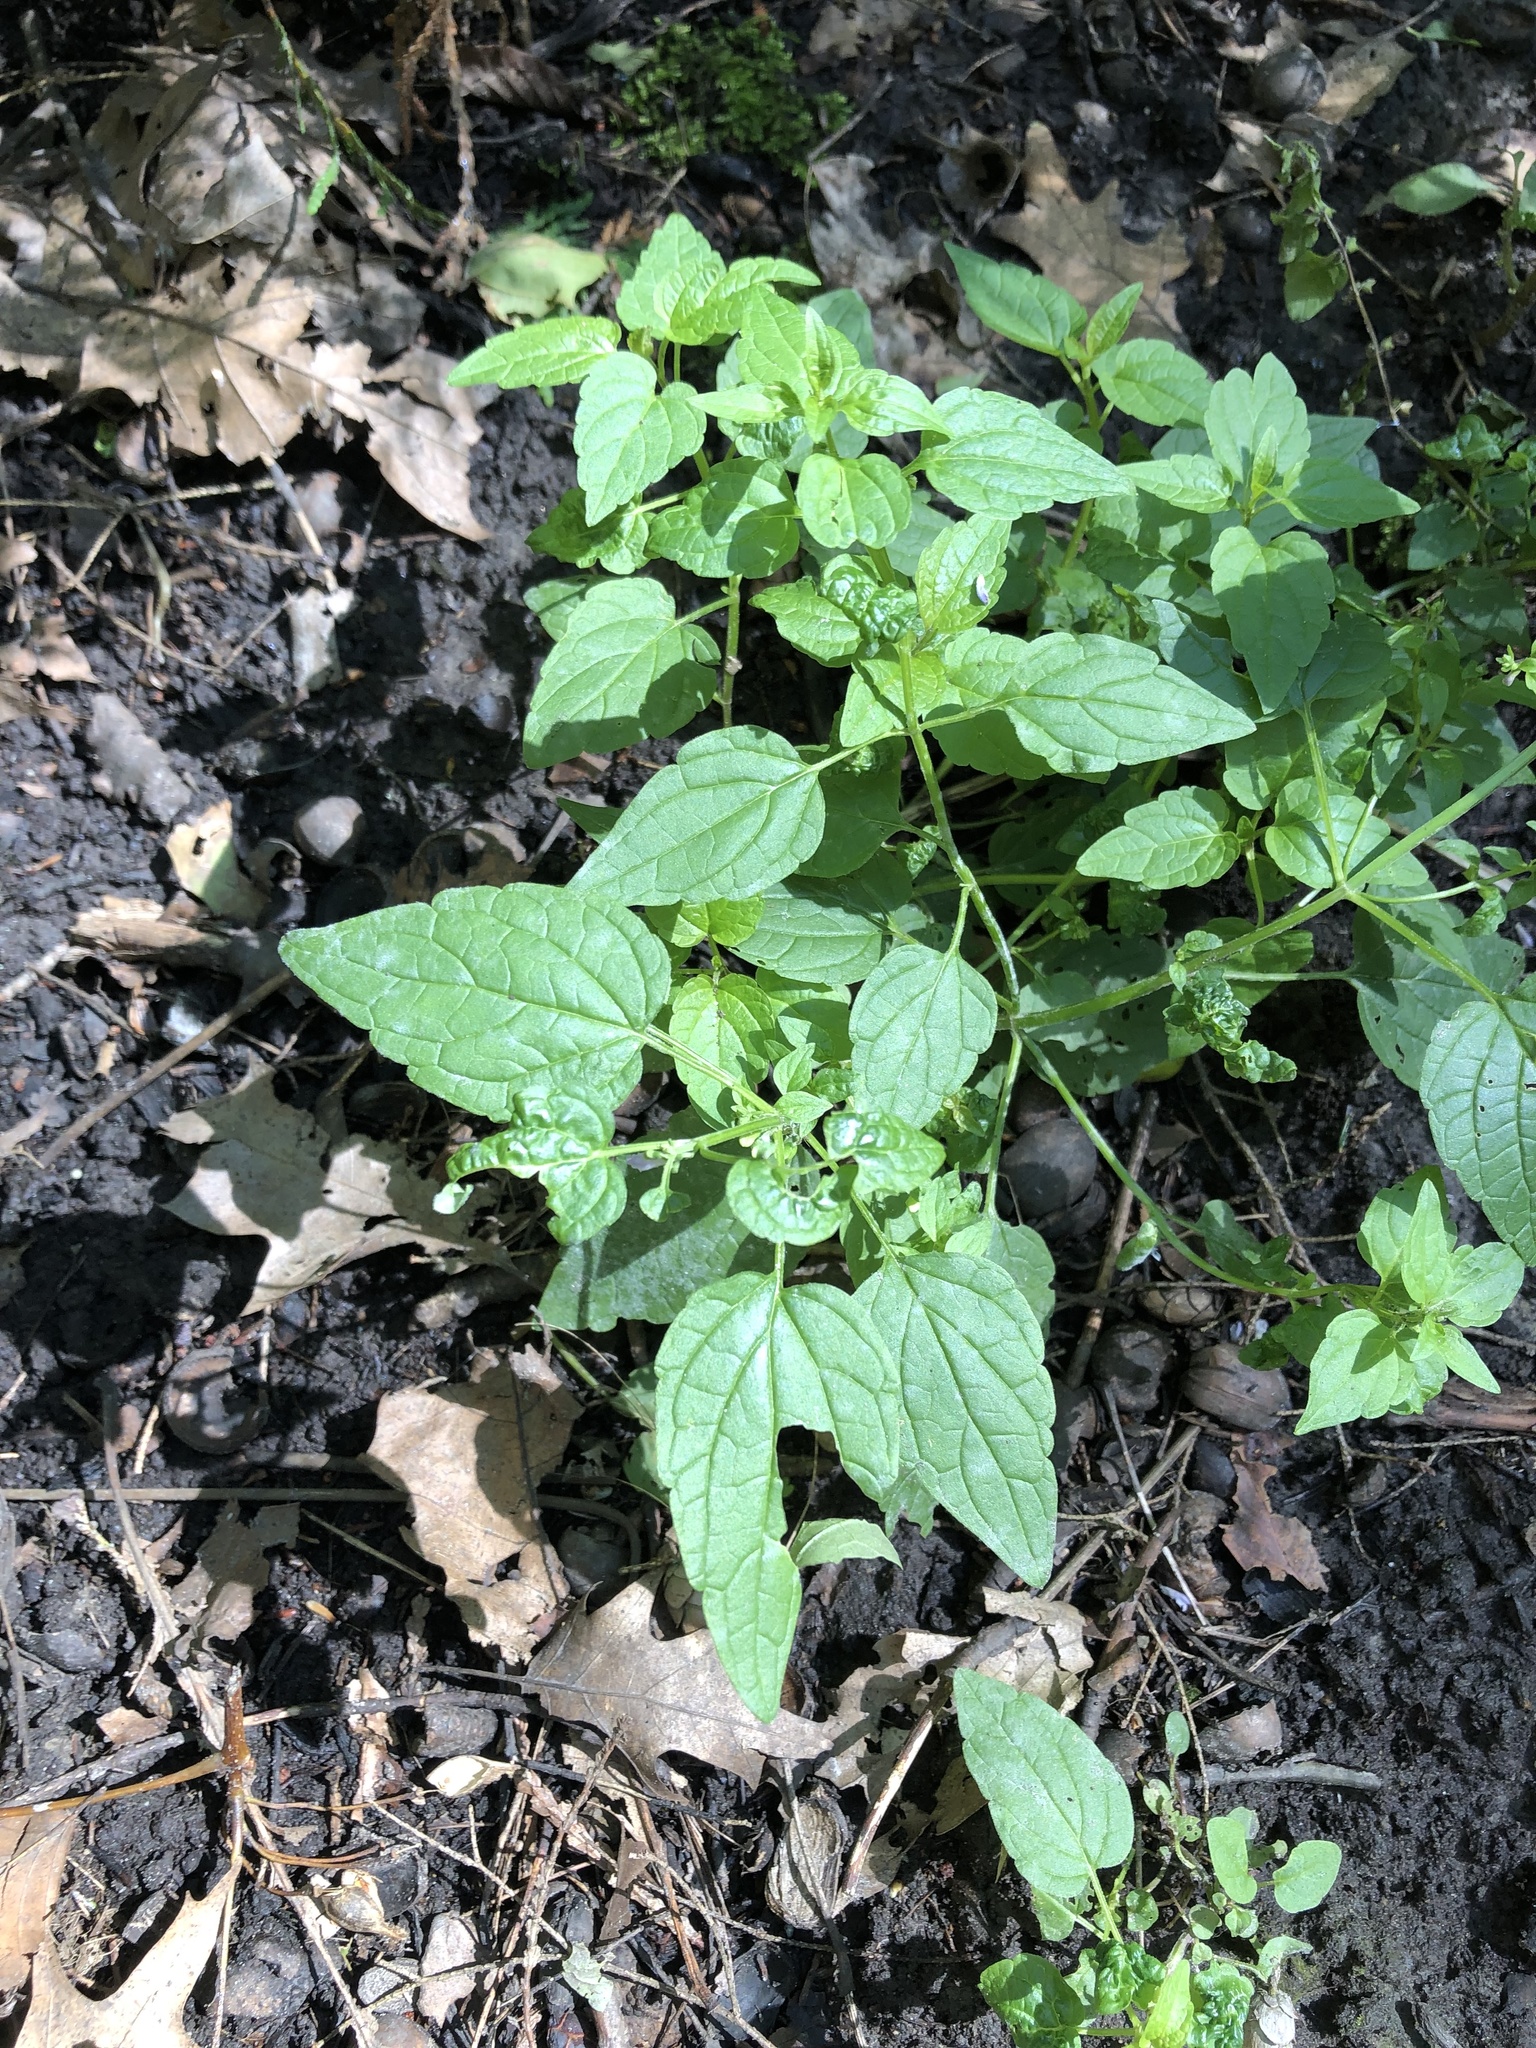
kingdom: Plantae
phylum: Tracheophyta
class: Magnoliopsida
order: Lamiales
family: Lamiaceae
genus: Scutellaria
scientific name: Scutellaria lateriflora
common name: Blue skullcap
